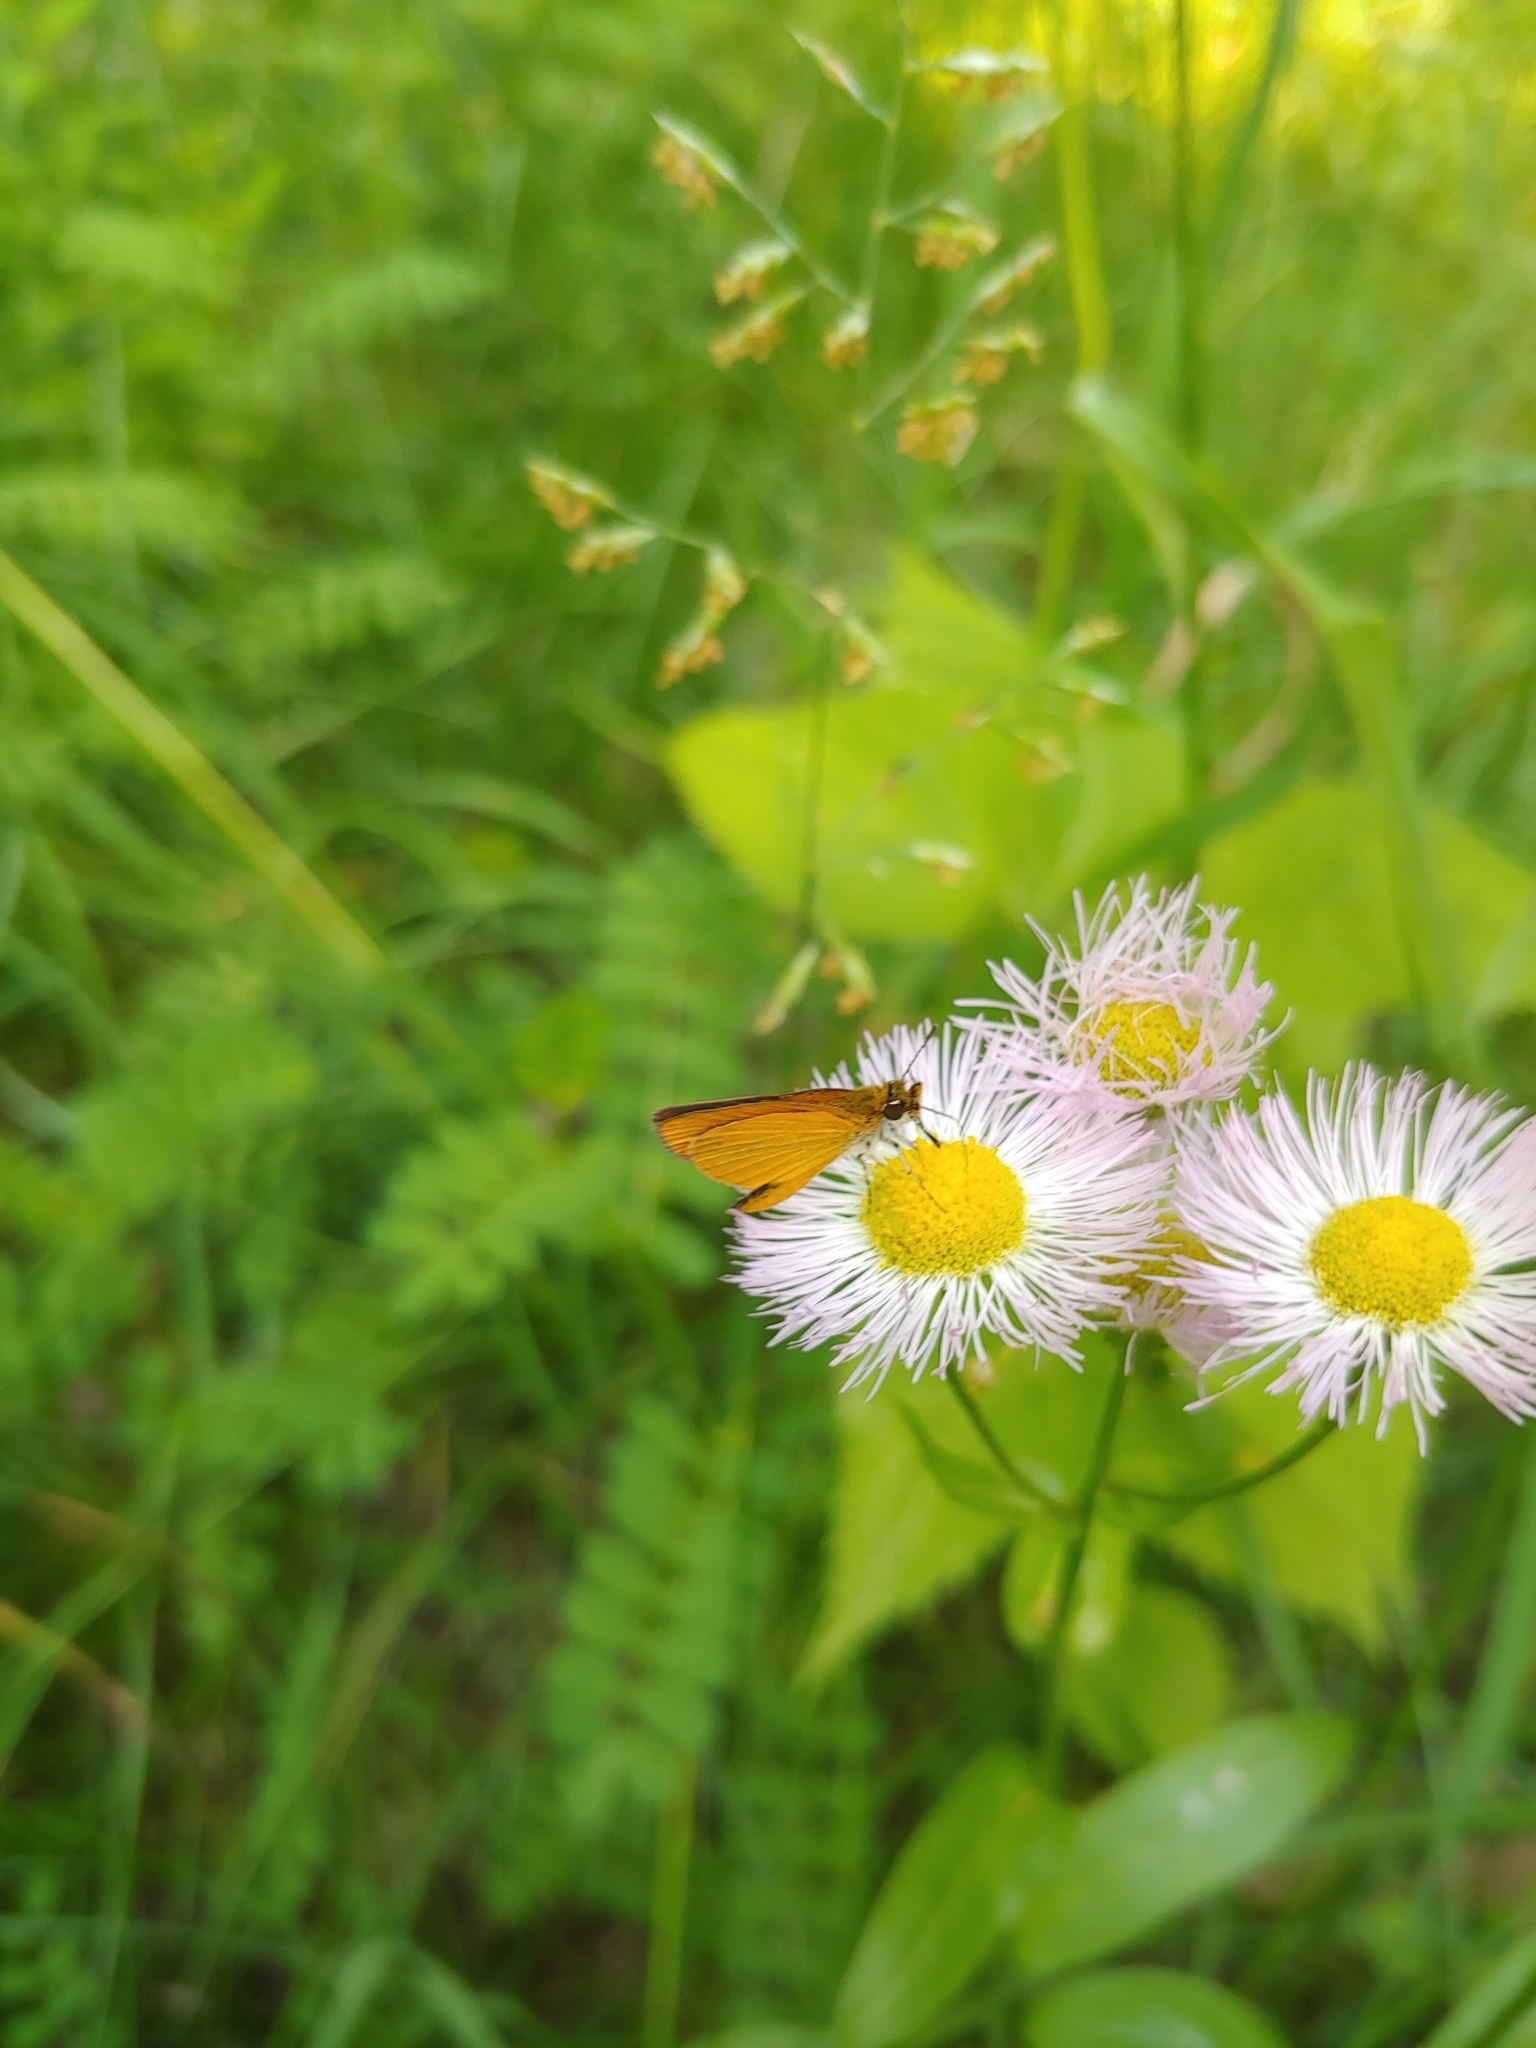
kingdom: Animalia
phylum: Arthropoda
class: Insecta
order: Lepidoptera
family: Hesperiidae
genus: Ancyloxypha
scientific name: Ancyloxypha numitor
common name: Least skipper
